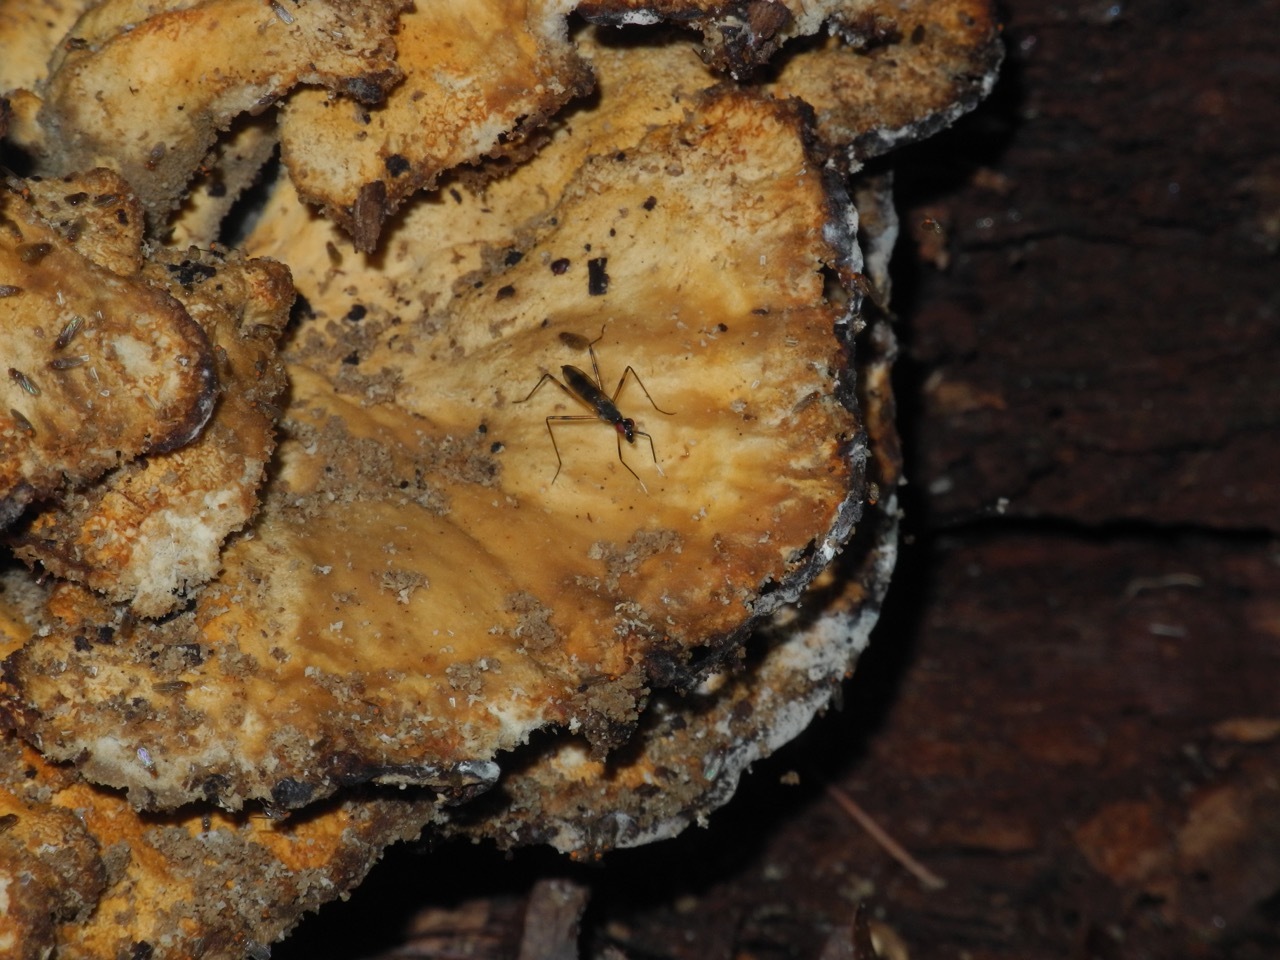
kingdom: Fungi
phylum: Basidiomycota
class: Agaricomycetes
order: Polyporales
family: Laetiporaceae
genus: Laetiporus
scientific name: Laetiporus sulphureus
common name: Chicken of the woods
